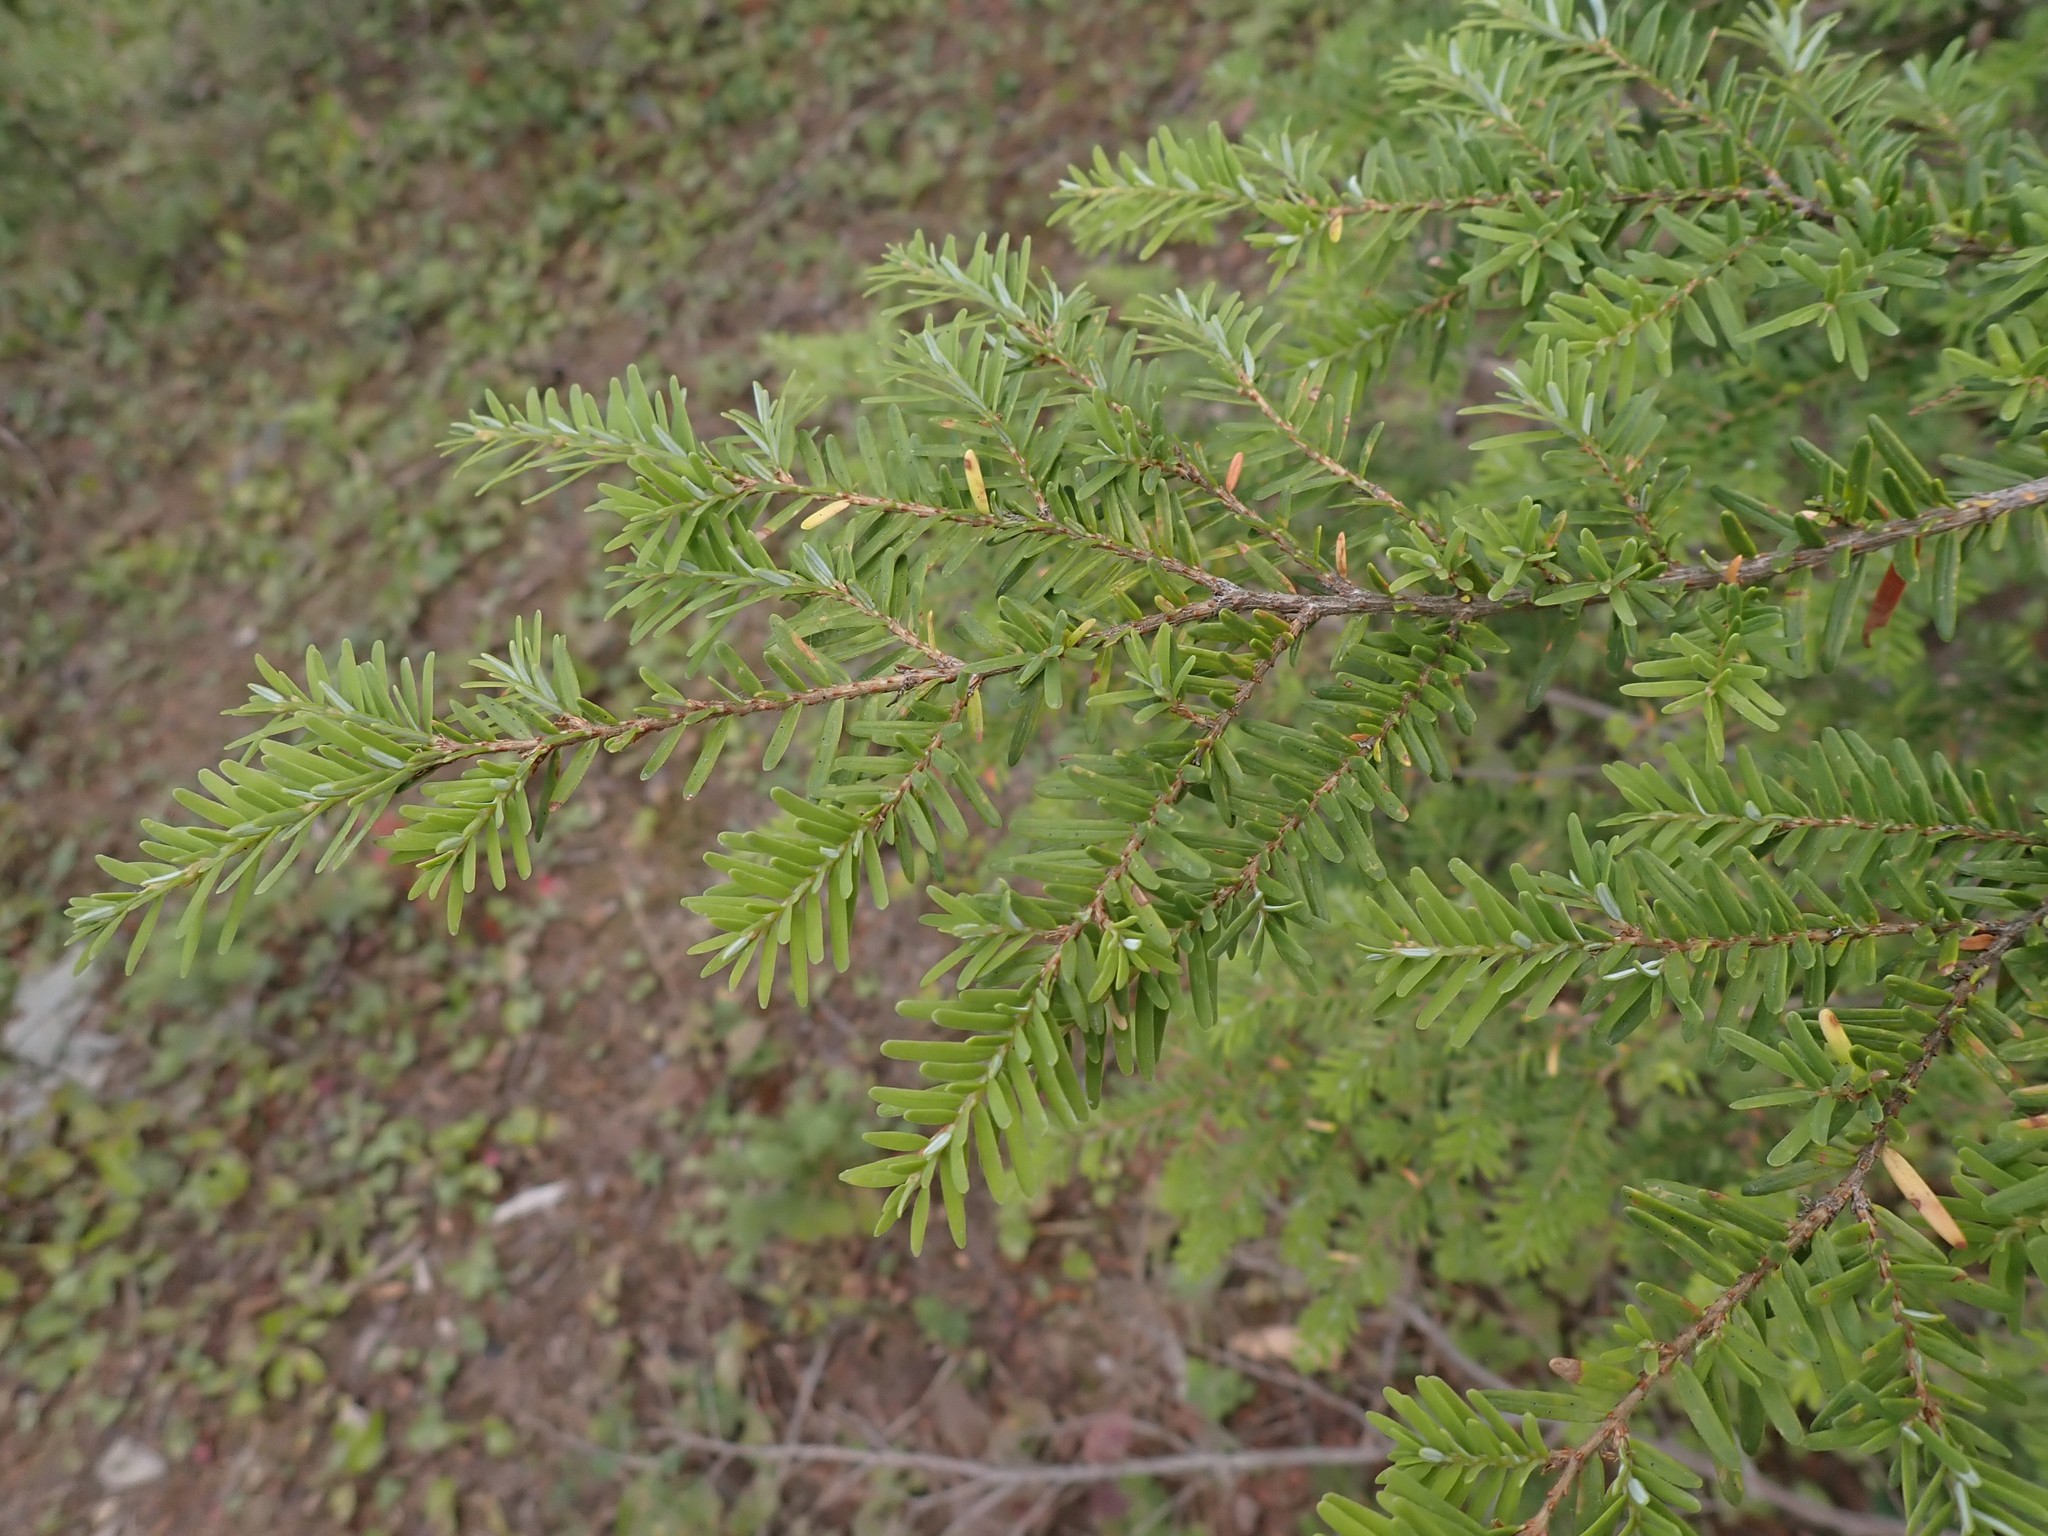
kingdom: Plantae
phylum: Tracheophyta
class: Pinopsida
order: Pinales
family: Pinaceae
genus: Tsuga
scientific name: Tsuga heterophylla
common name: Western hemlock
